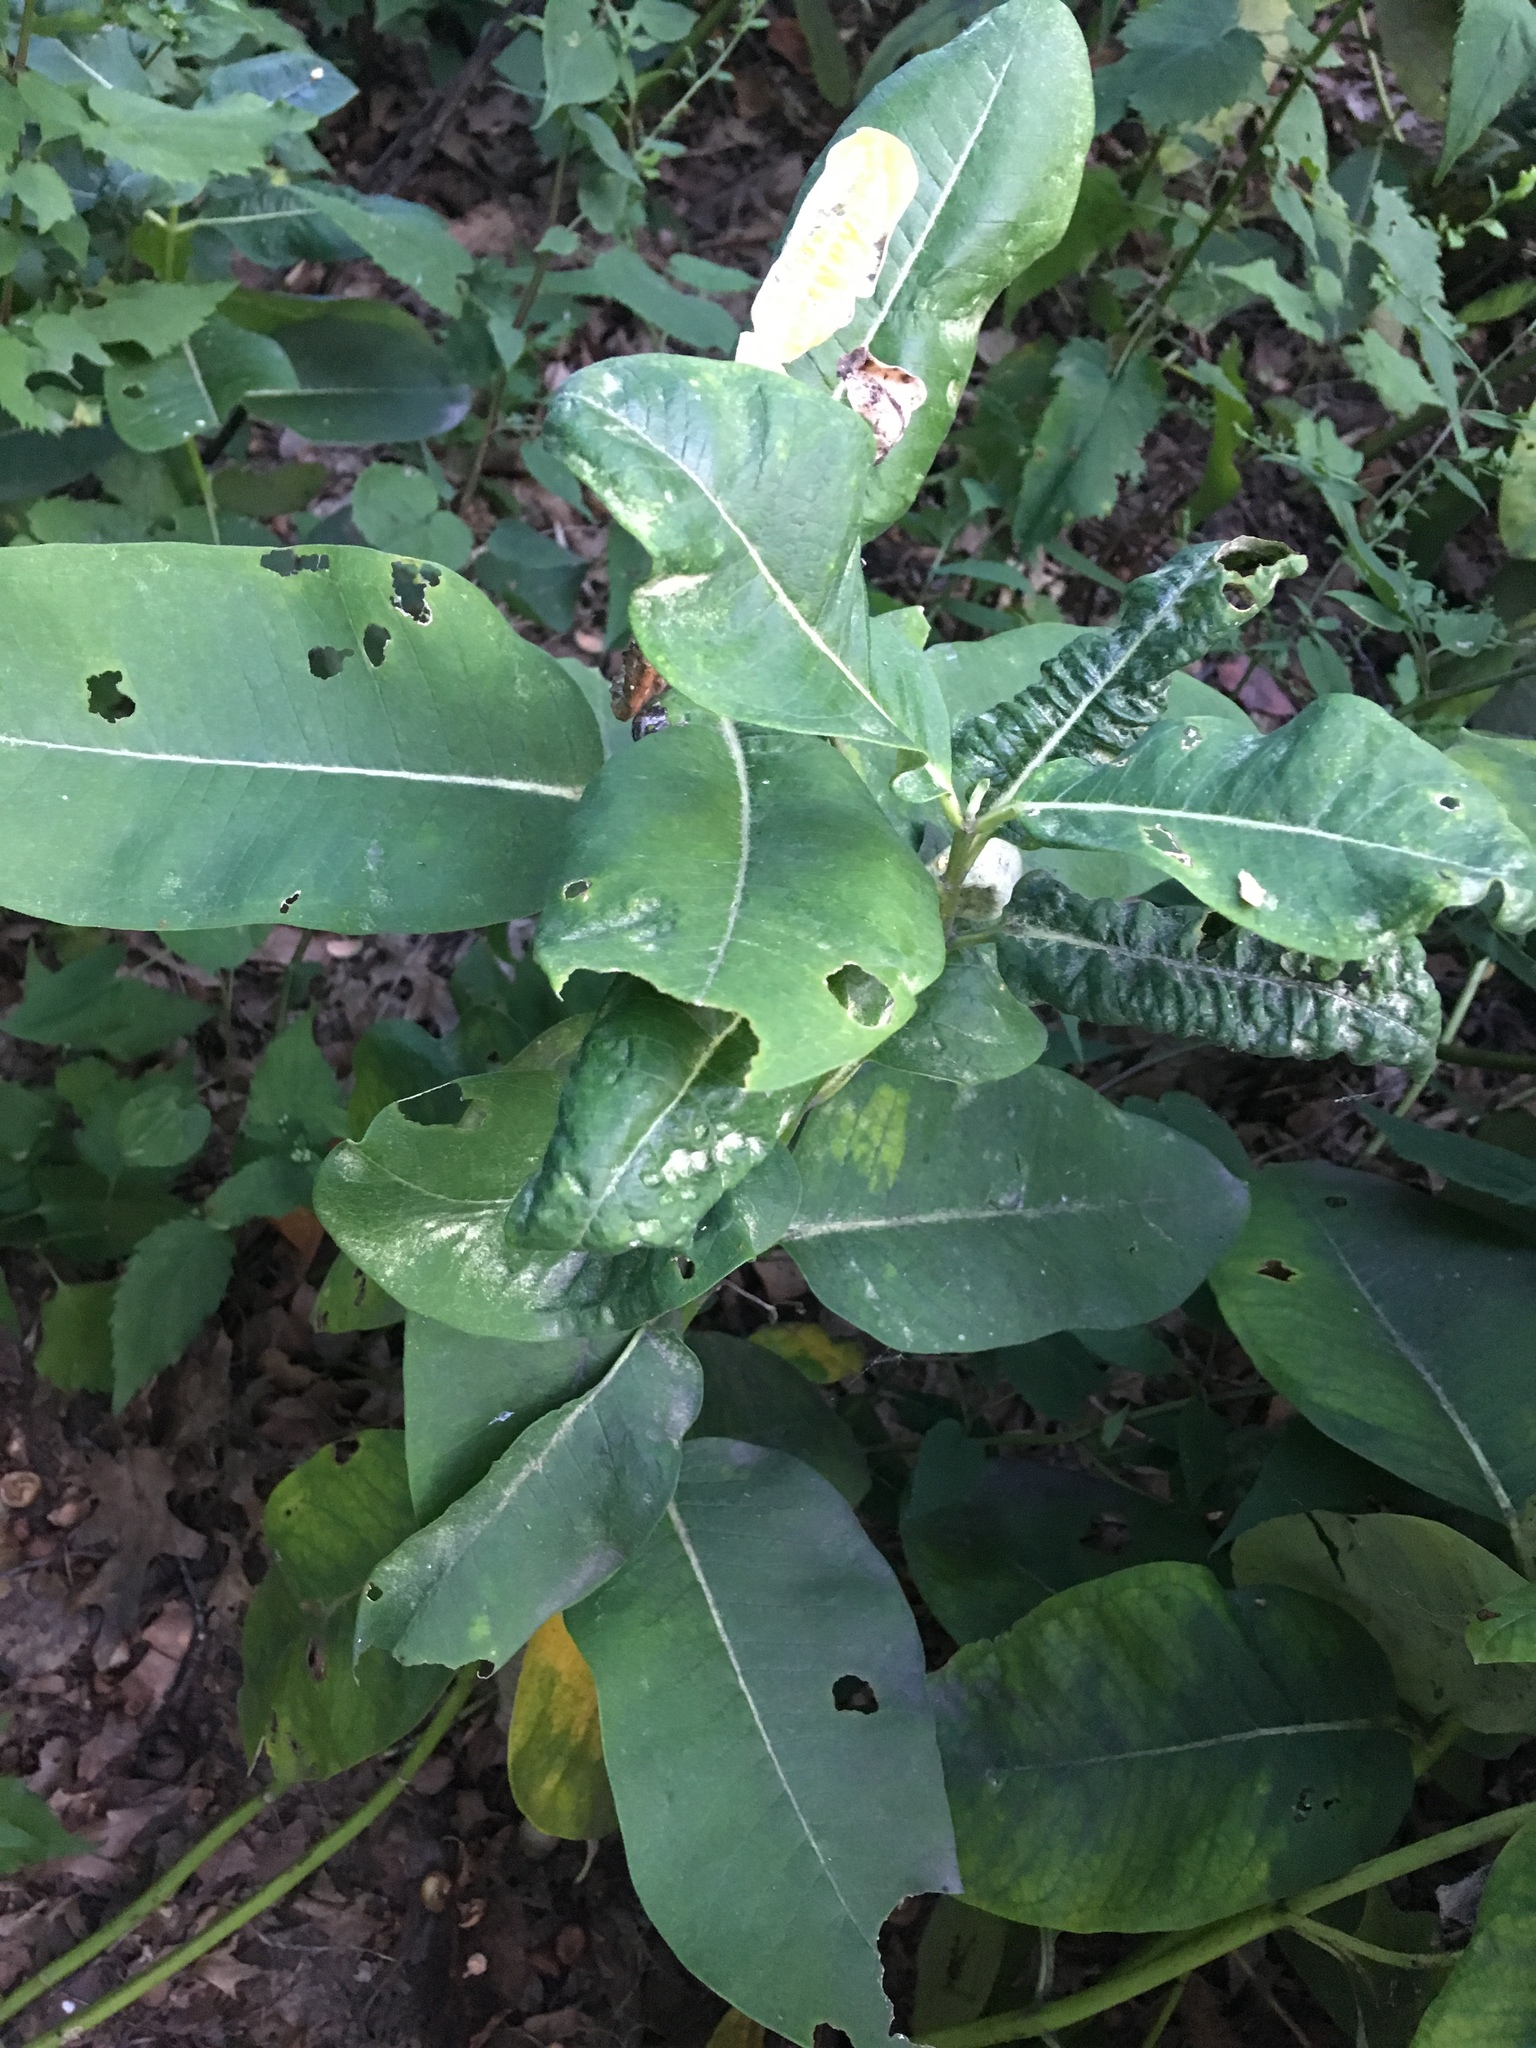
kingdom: Plantae
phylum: Tracheophyta
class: Magnoliopsida
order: Gentianales
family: Apocynaceae
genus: Asclepias
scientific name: Asclepias syriaca
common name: Common milkweed
